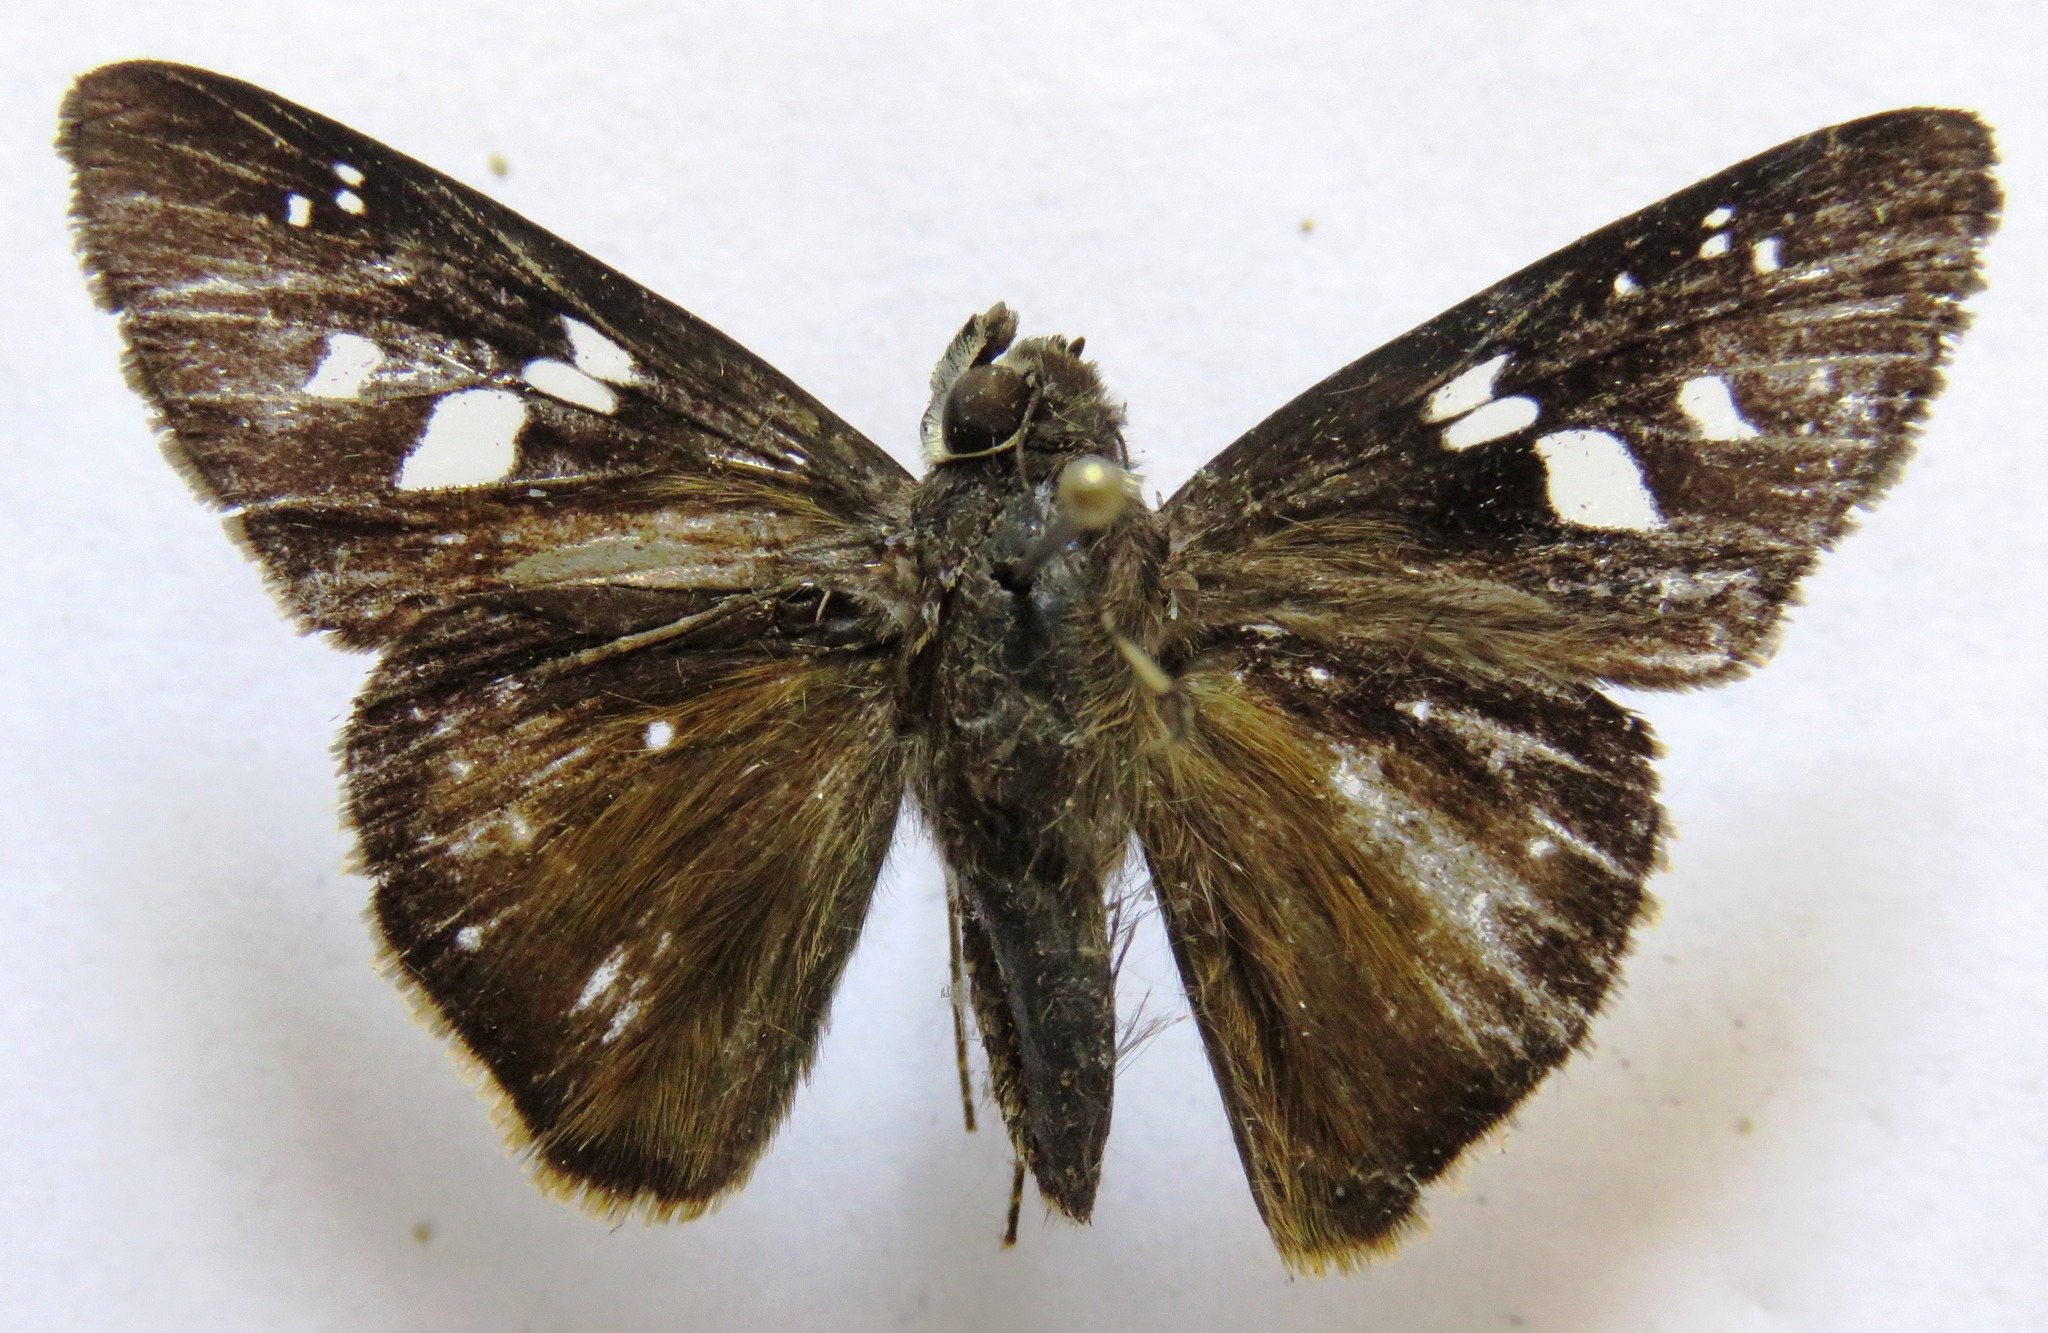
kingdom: Animalia
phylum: Arthropoda
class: Insecta
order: Lepidoptera
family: Hesperiidae
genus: Rhinthon
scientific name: Rhinthon cubana
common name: Cuban skipper
